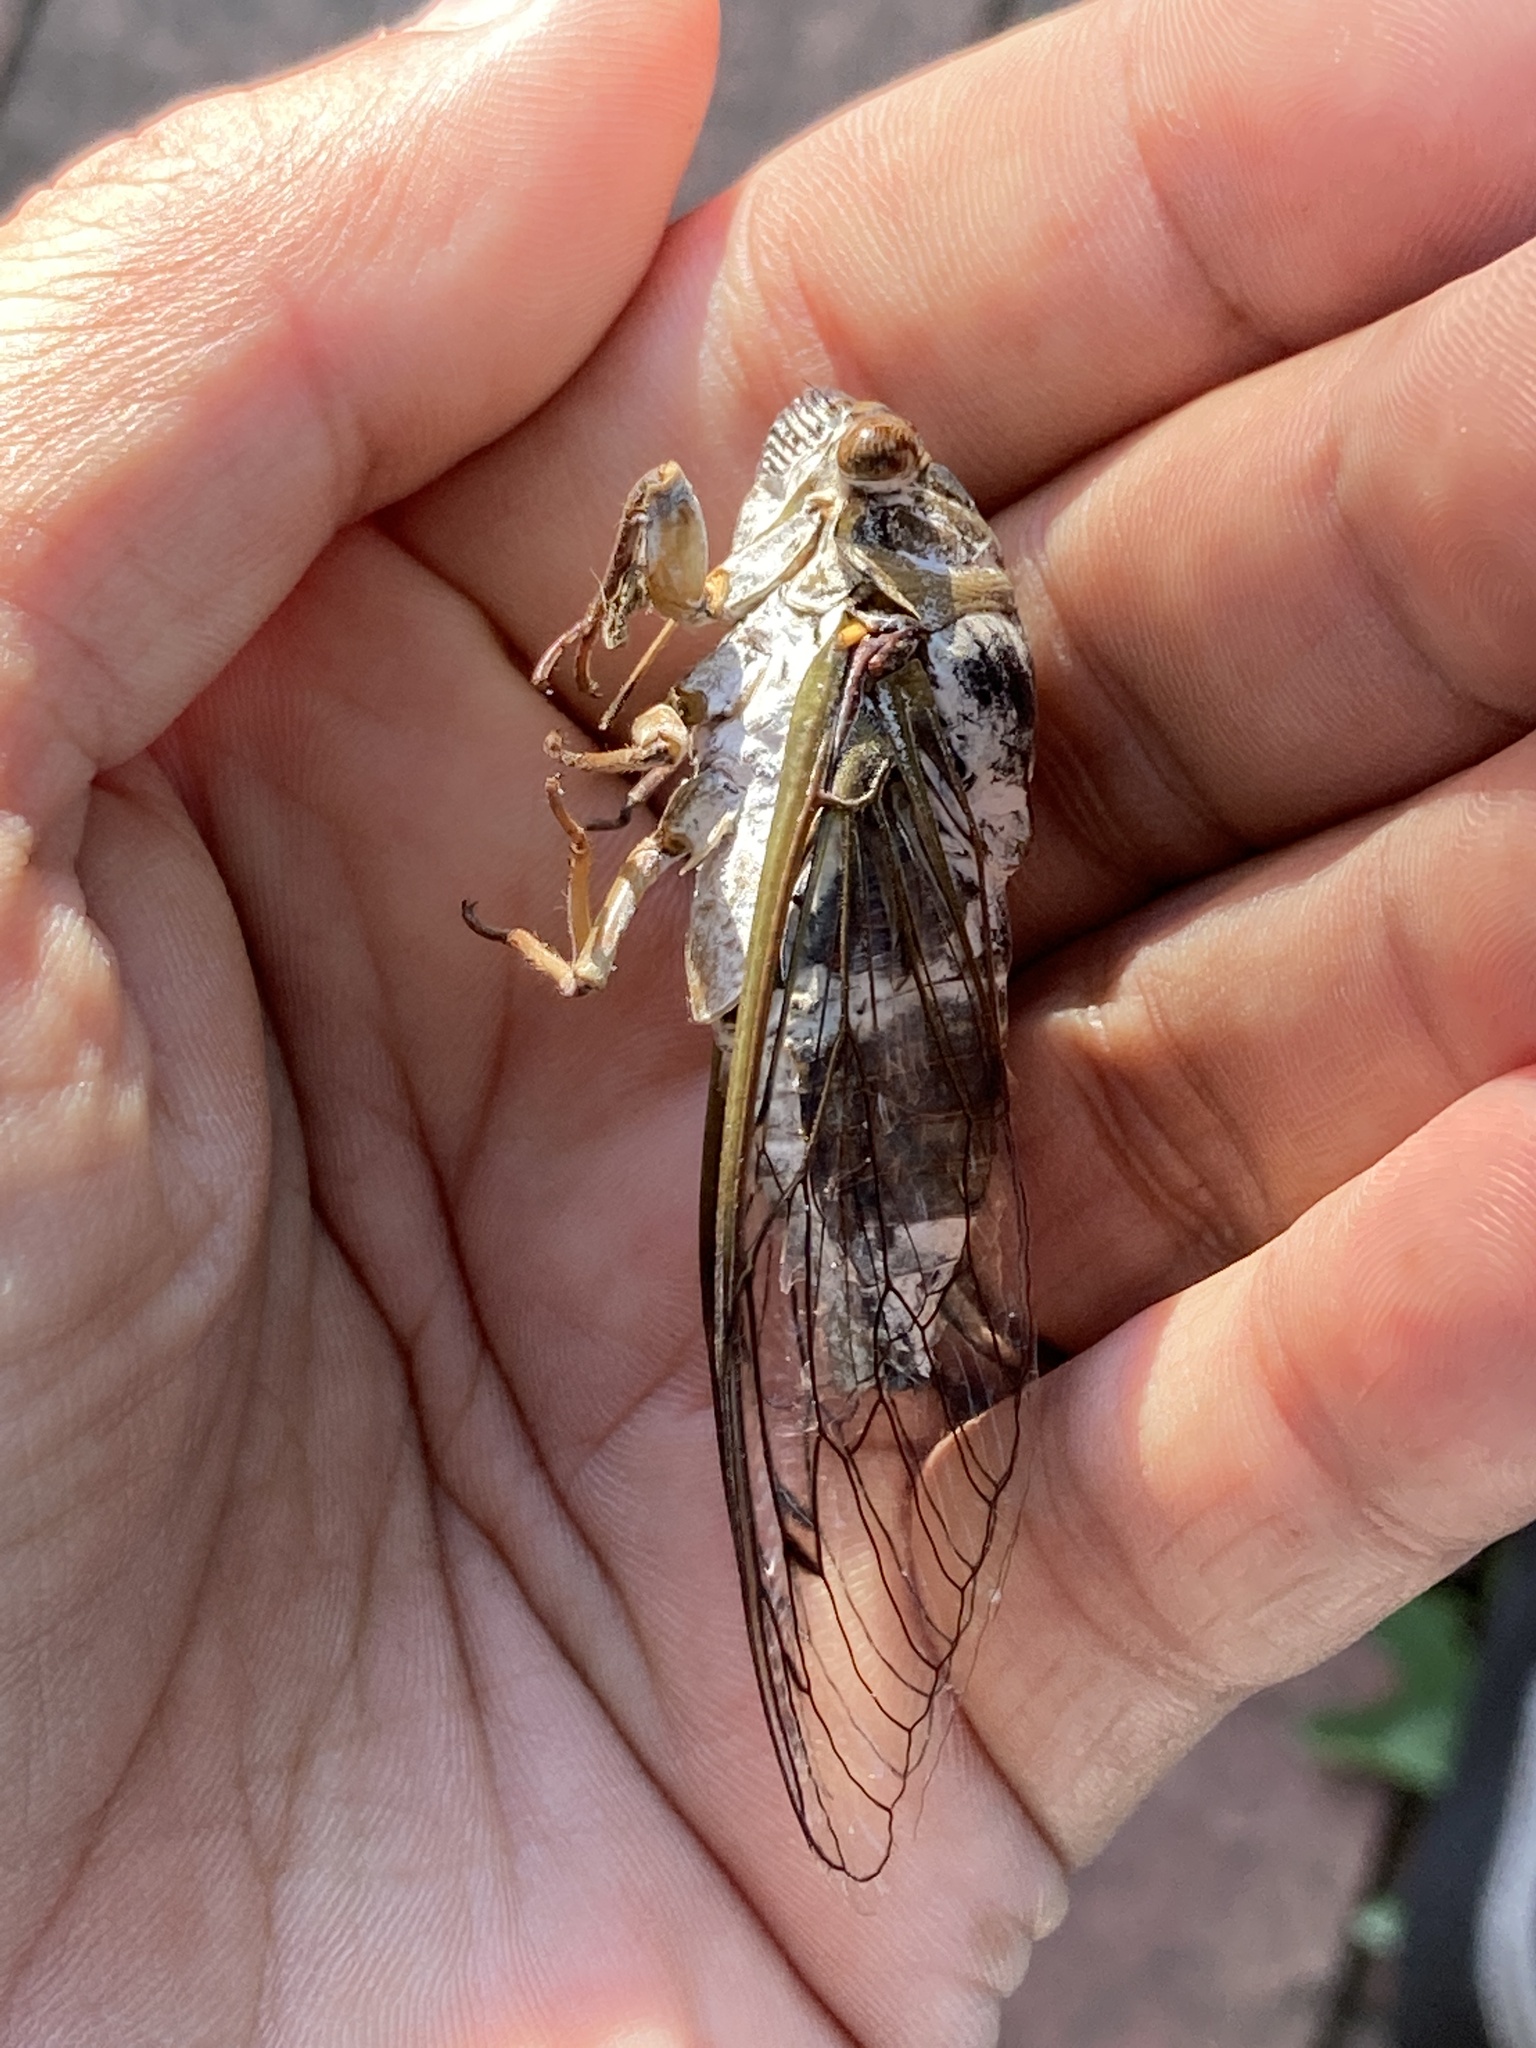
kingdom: Animalia
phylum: Arthropoda
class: Insecta
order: Hemiptera
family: Cicadidae
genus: Diceroprocta
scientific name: Diceroprocta grossa
